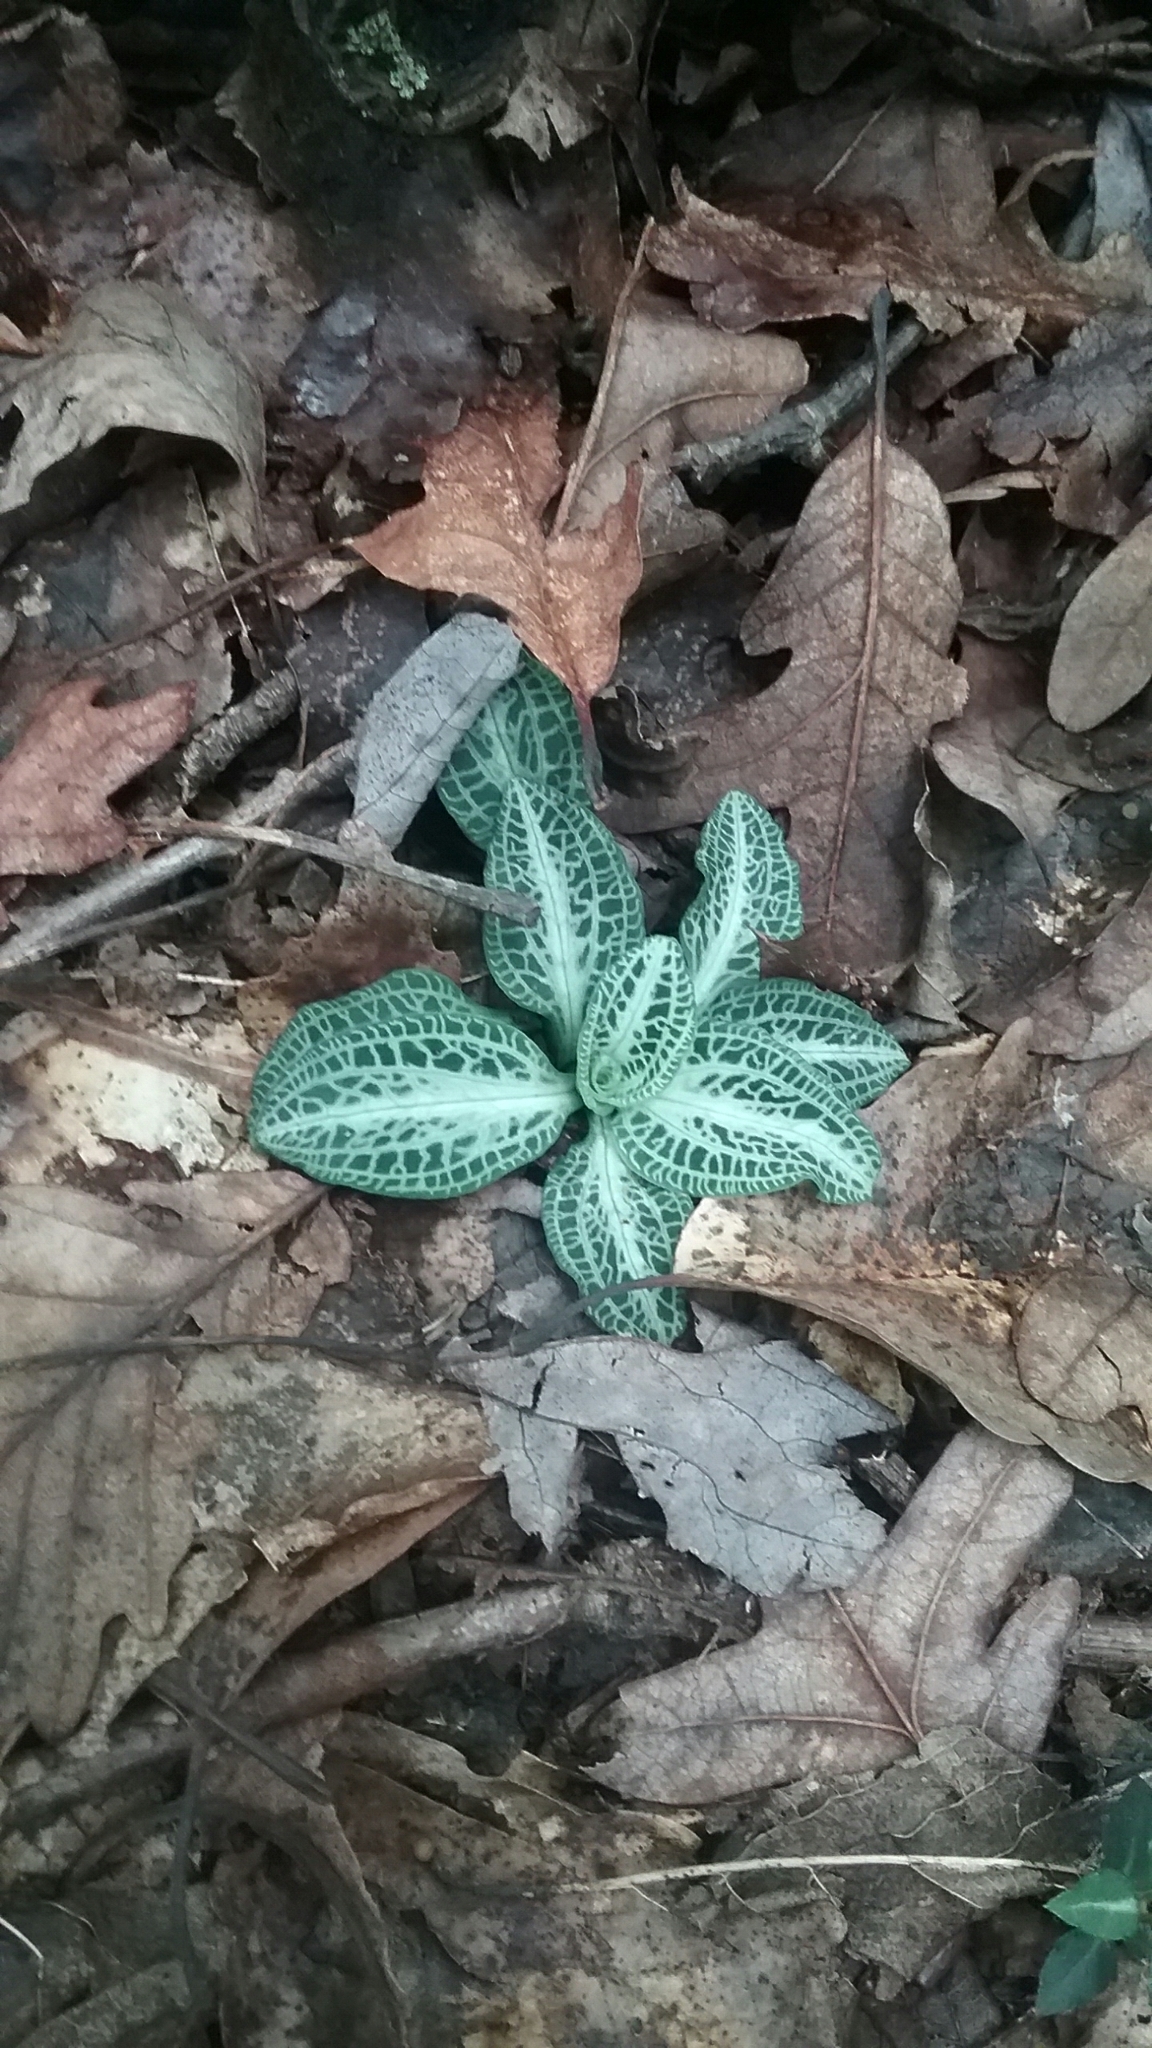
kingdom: Plantae
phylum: Tracheophyta
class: Liliopsida
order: Asparagales
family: Orchidaceae
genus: Goodyera
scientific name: Goodyera pubescens
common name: Downy rattlesnake-plantain
